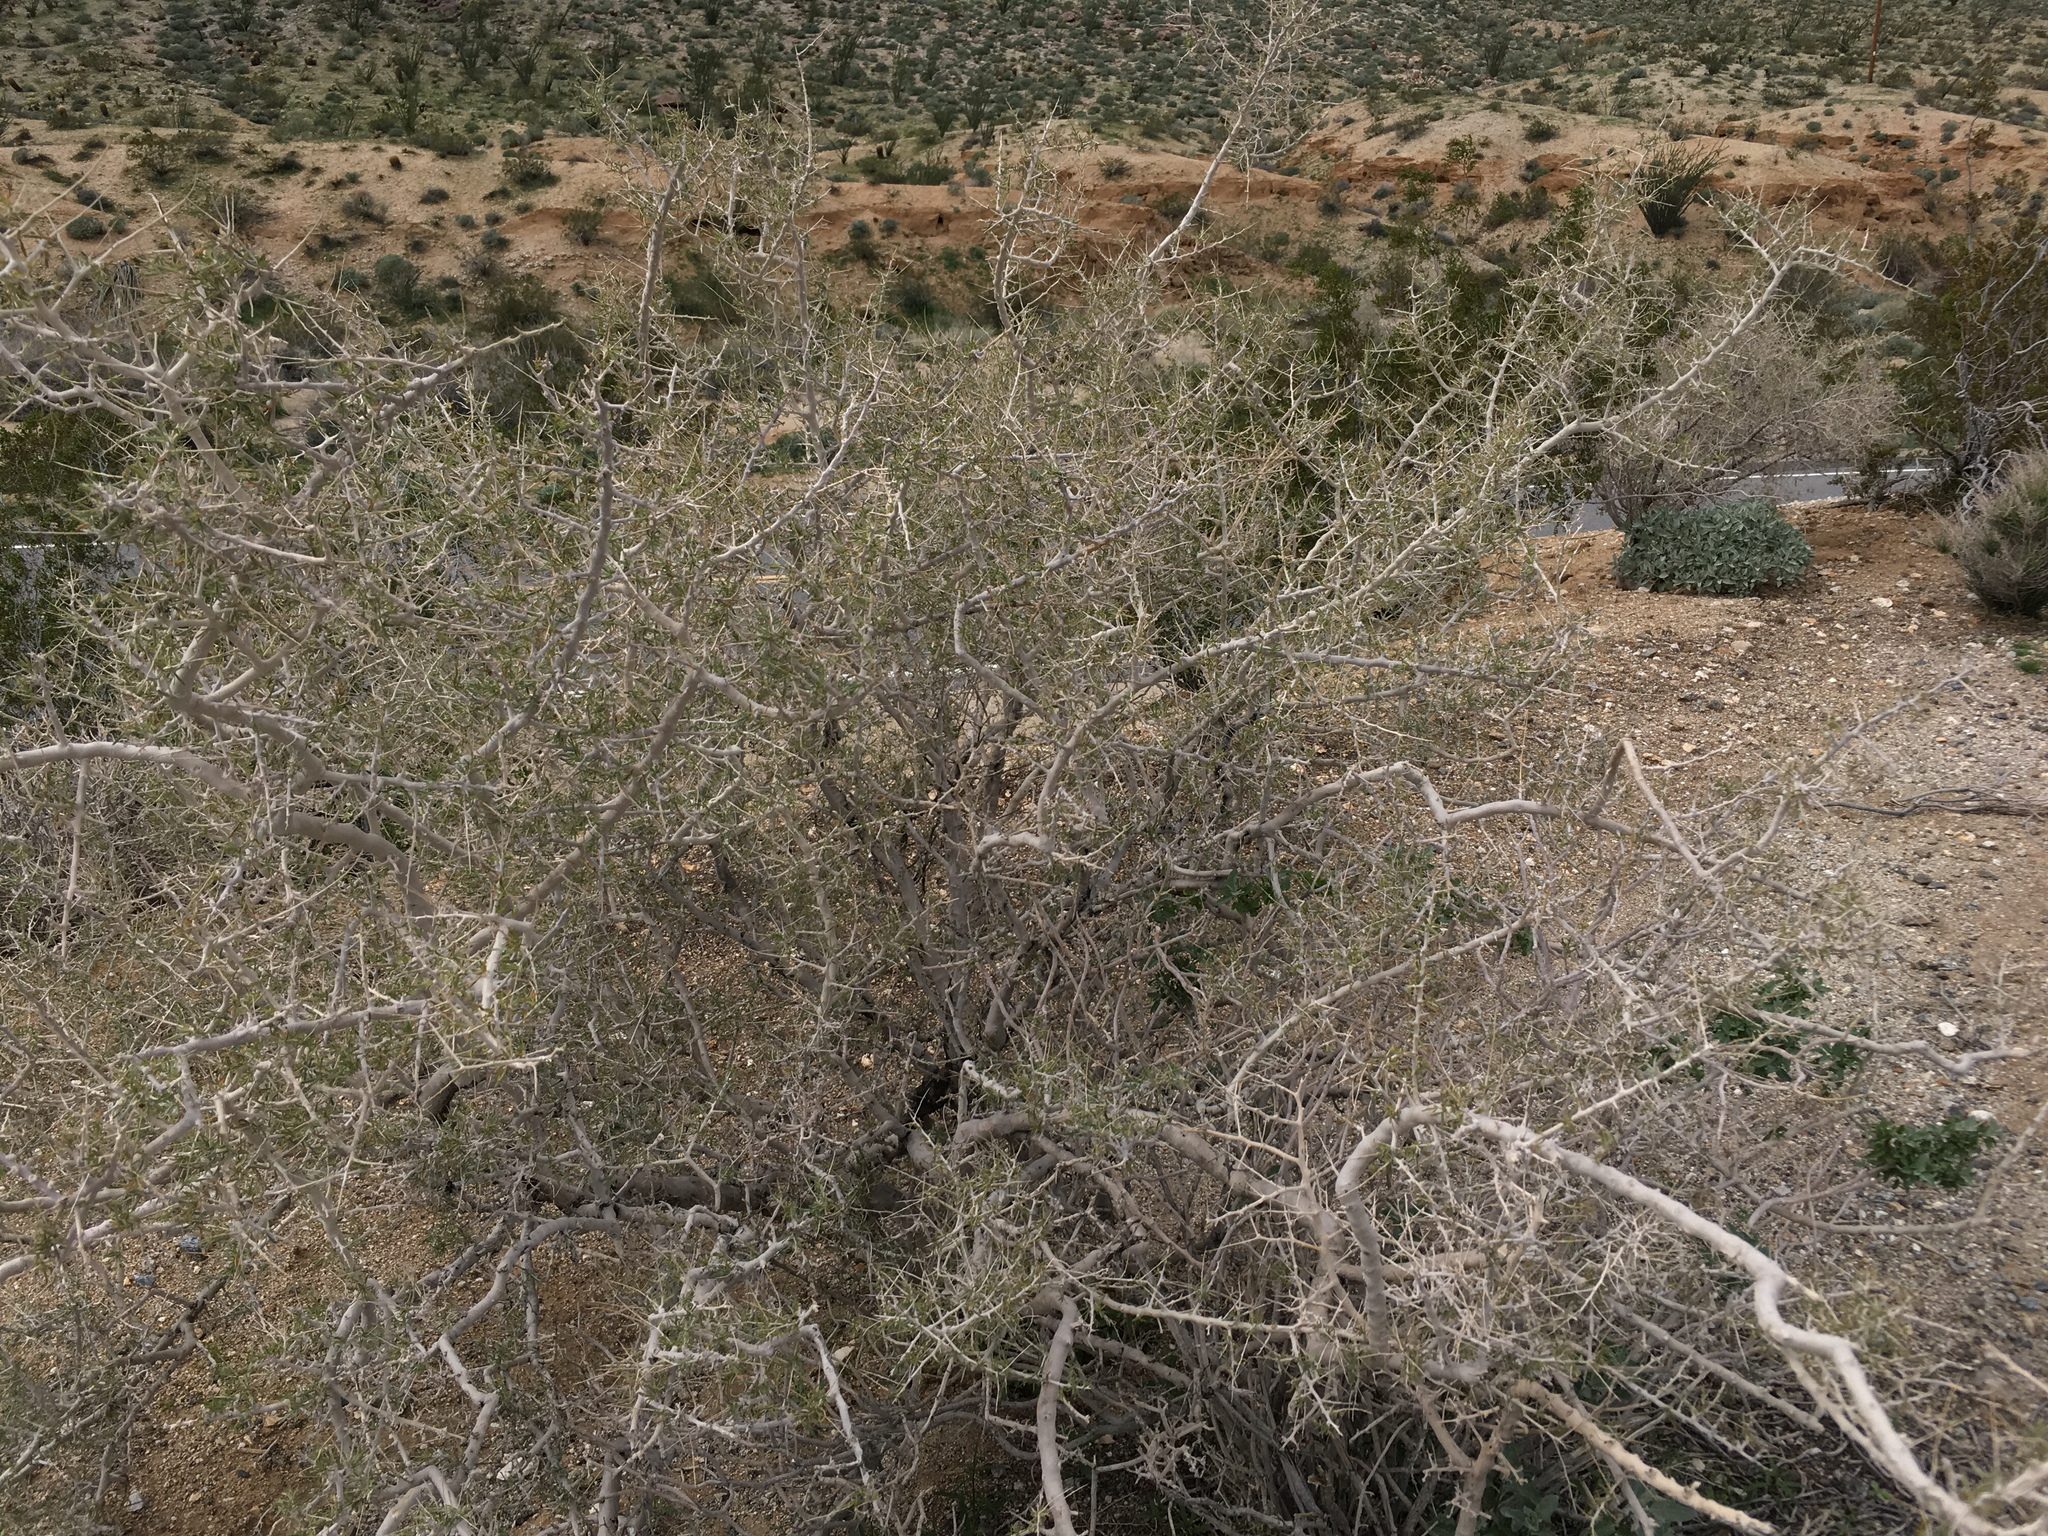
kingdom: Plantae
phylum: Tracheophyta
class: Magnoliopsida
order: Fabales
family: Fabaceae
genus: Psorothamnus
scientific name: Psorothamnus schottii
